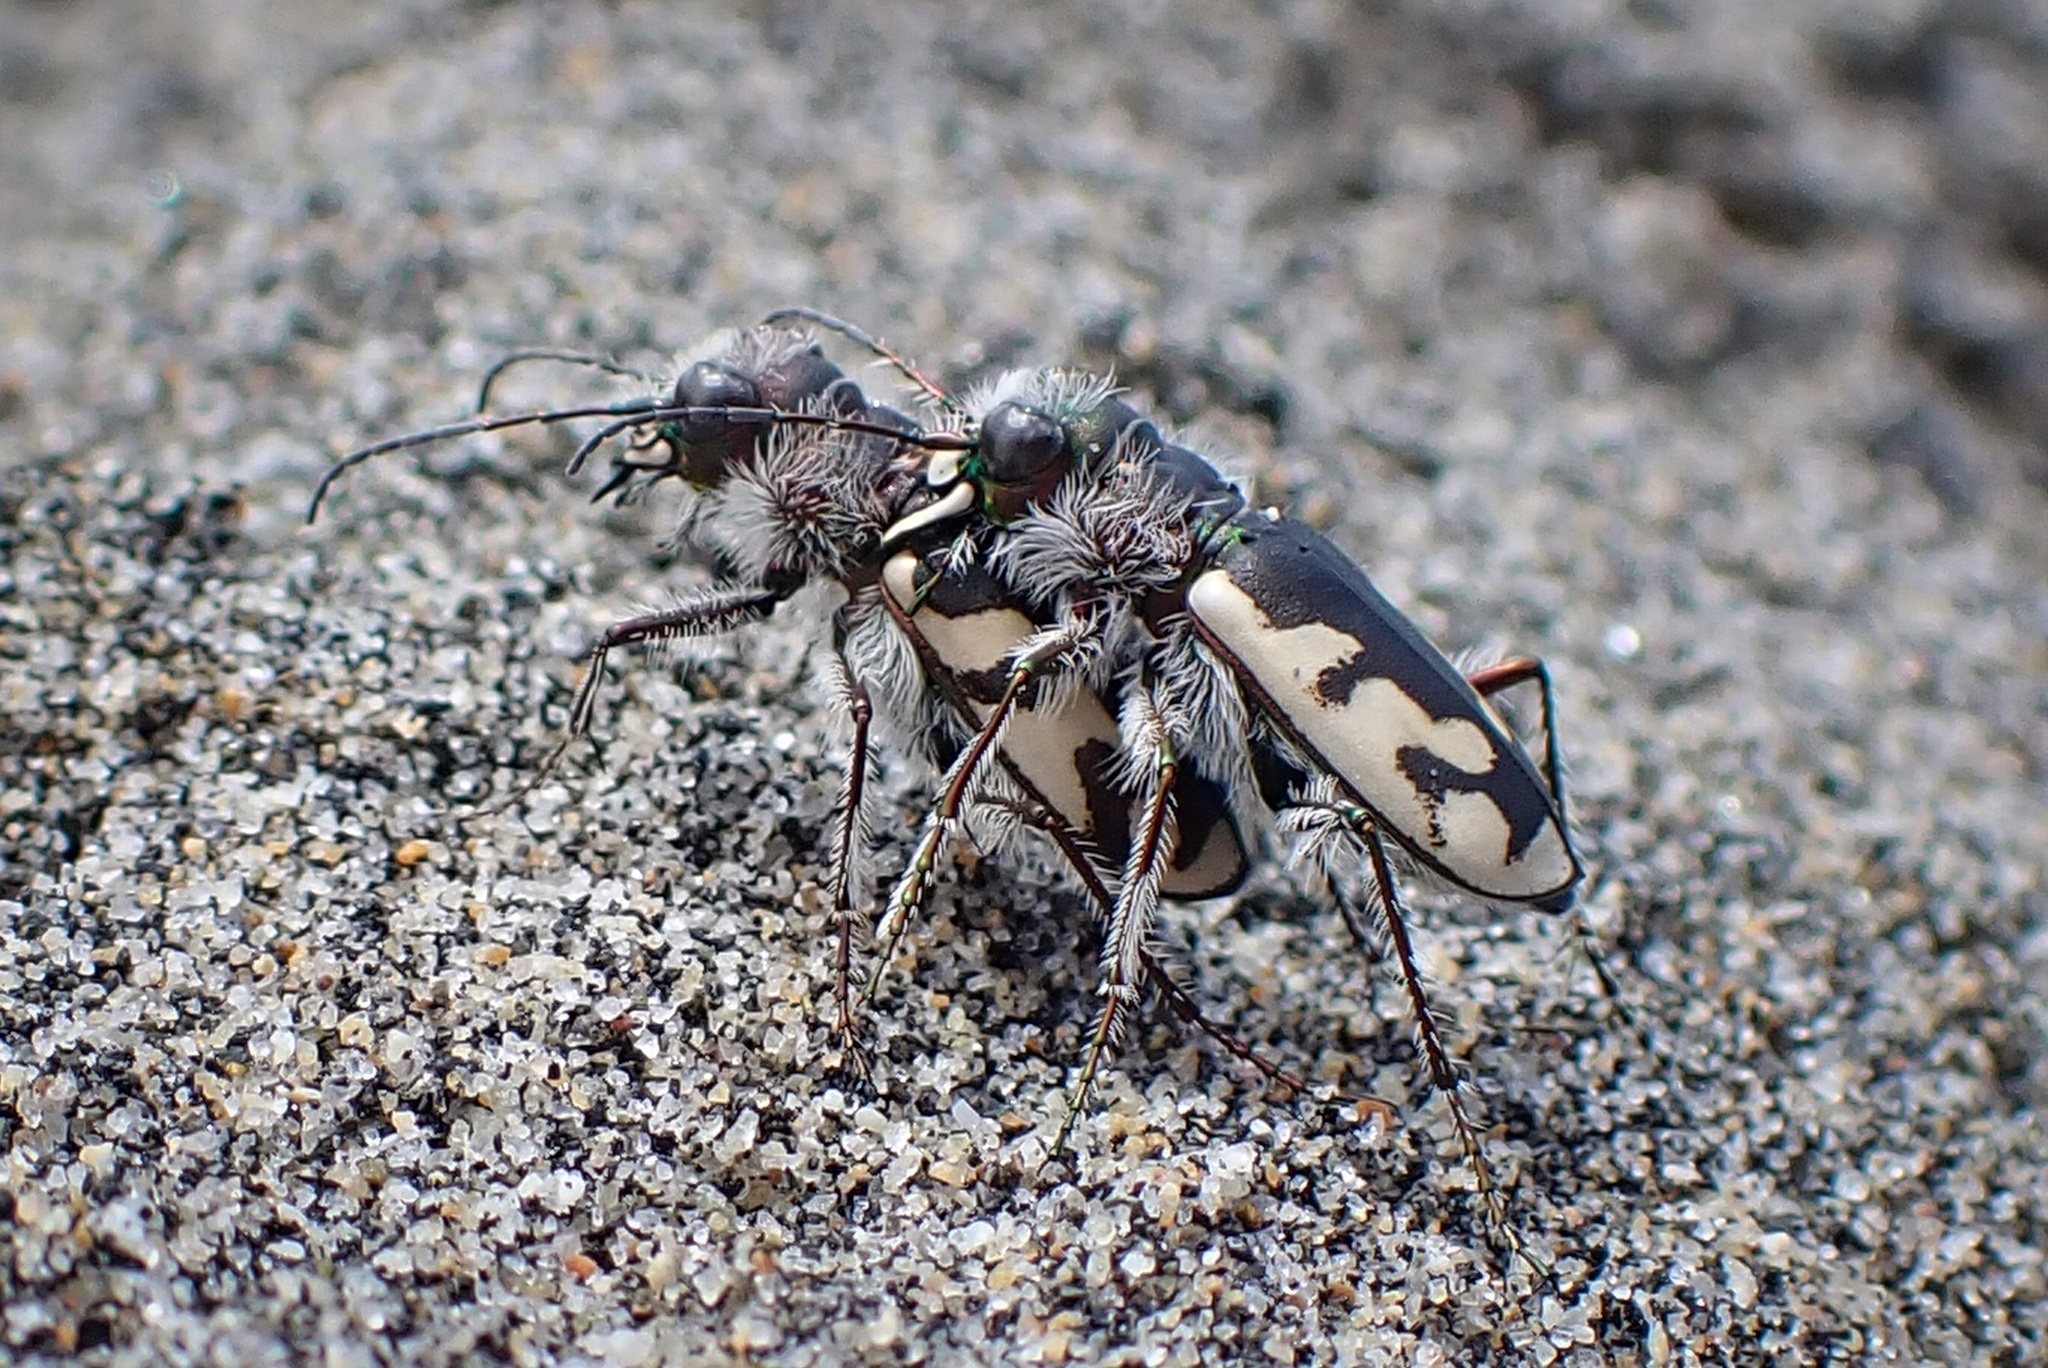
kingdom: Animalia
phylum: Arthropoda
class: Insecta
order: Coleoptera
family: Carabidae
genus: Cicindela
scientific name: Cicindela latesignata
